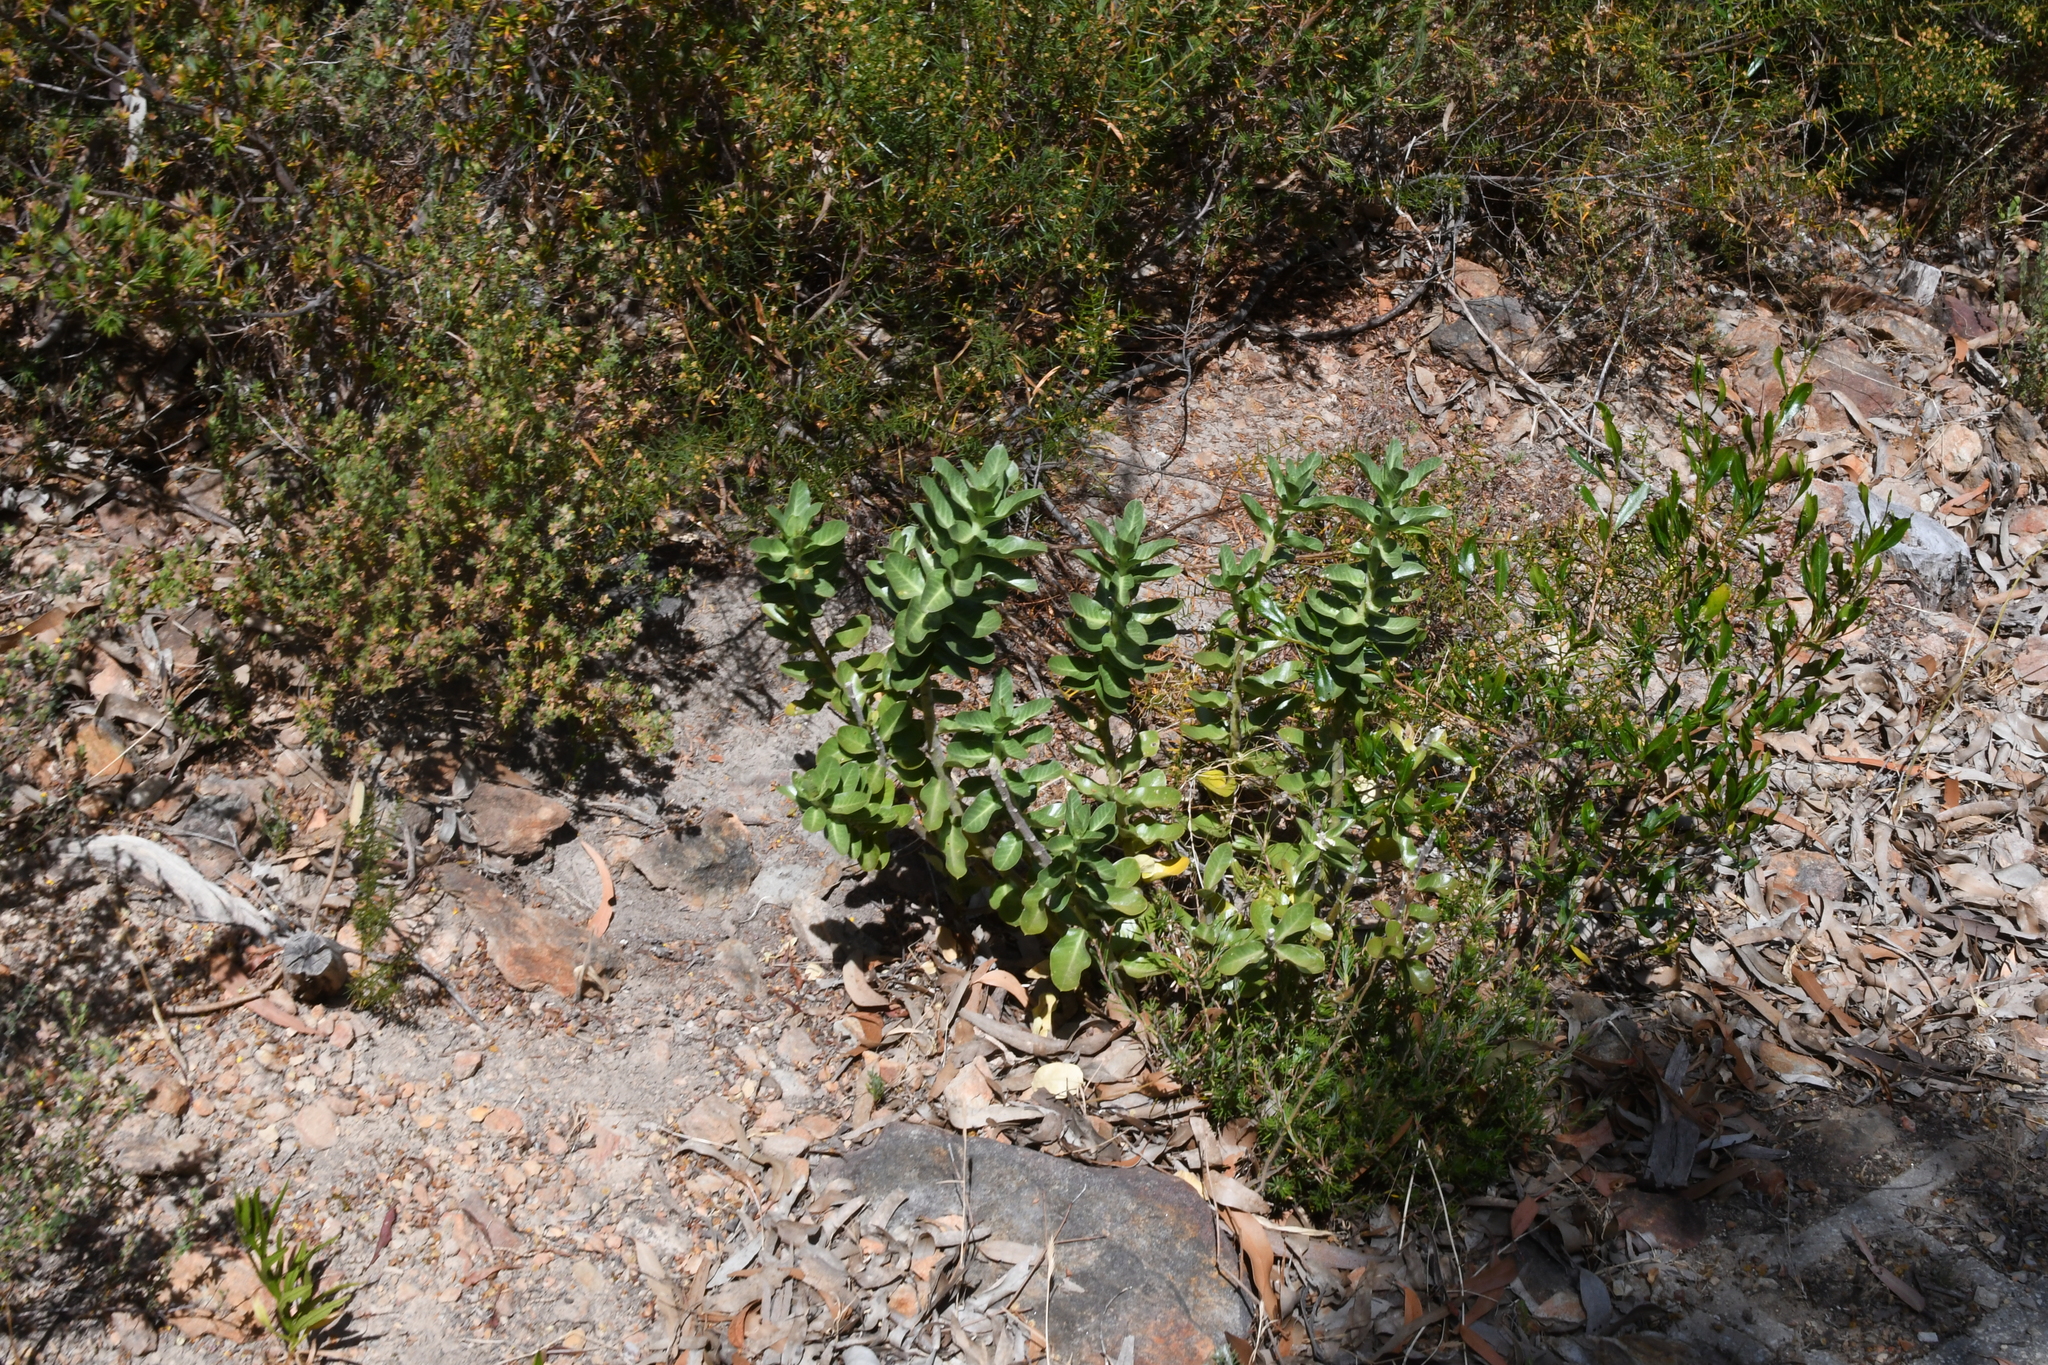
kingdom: Plantae
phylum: Tracheophyta
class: Magnoliopsida
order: Gentianales
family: Apocynaceae
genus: Gomphocarpus
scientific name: Gomphocarpus cancellatus
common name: Wild cotton
